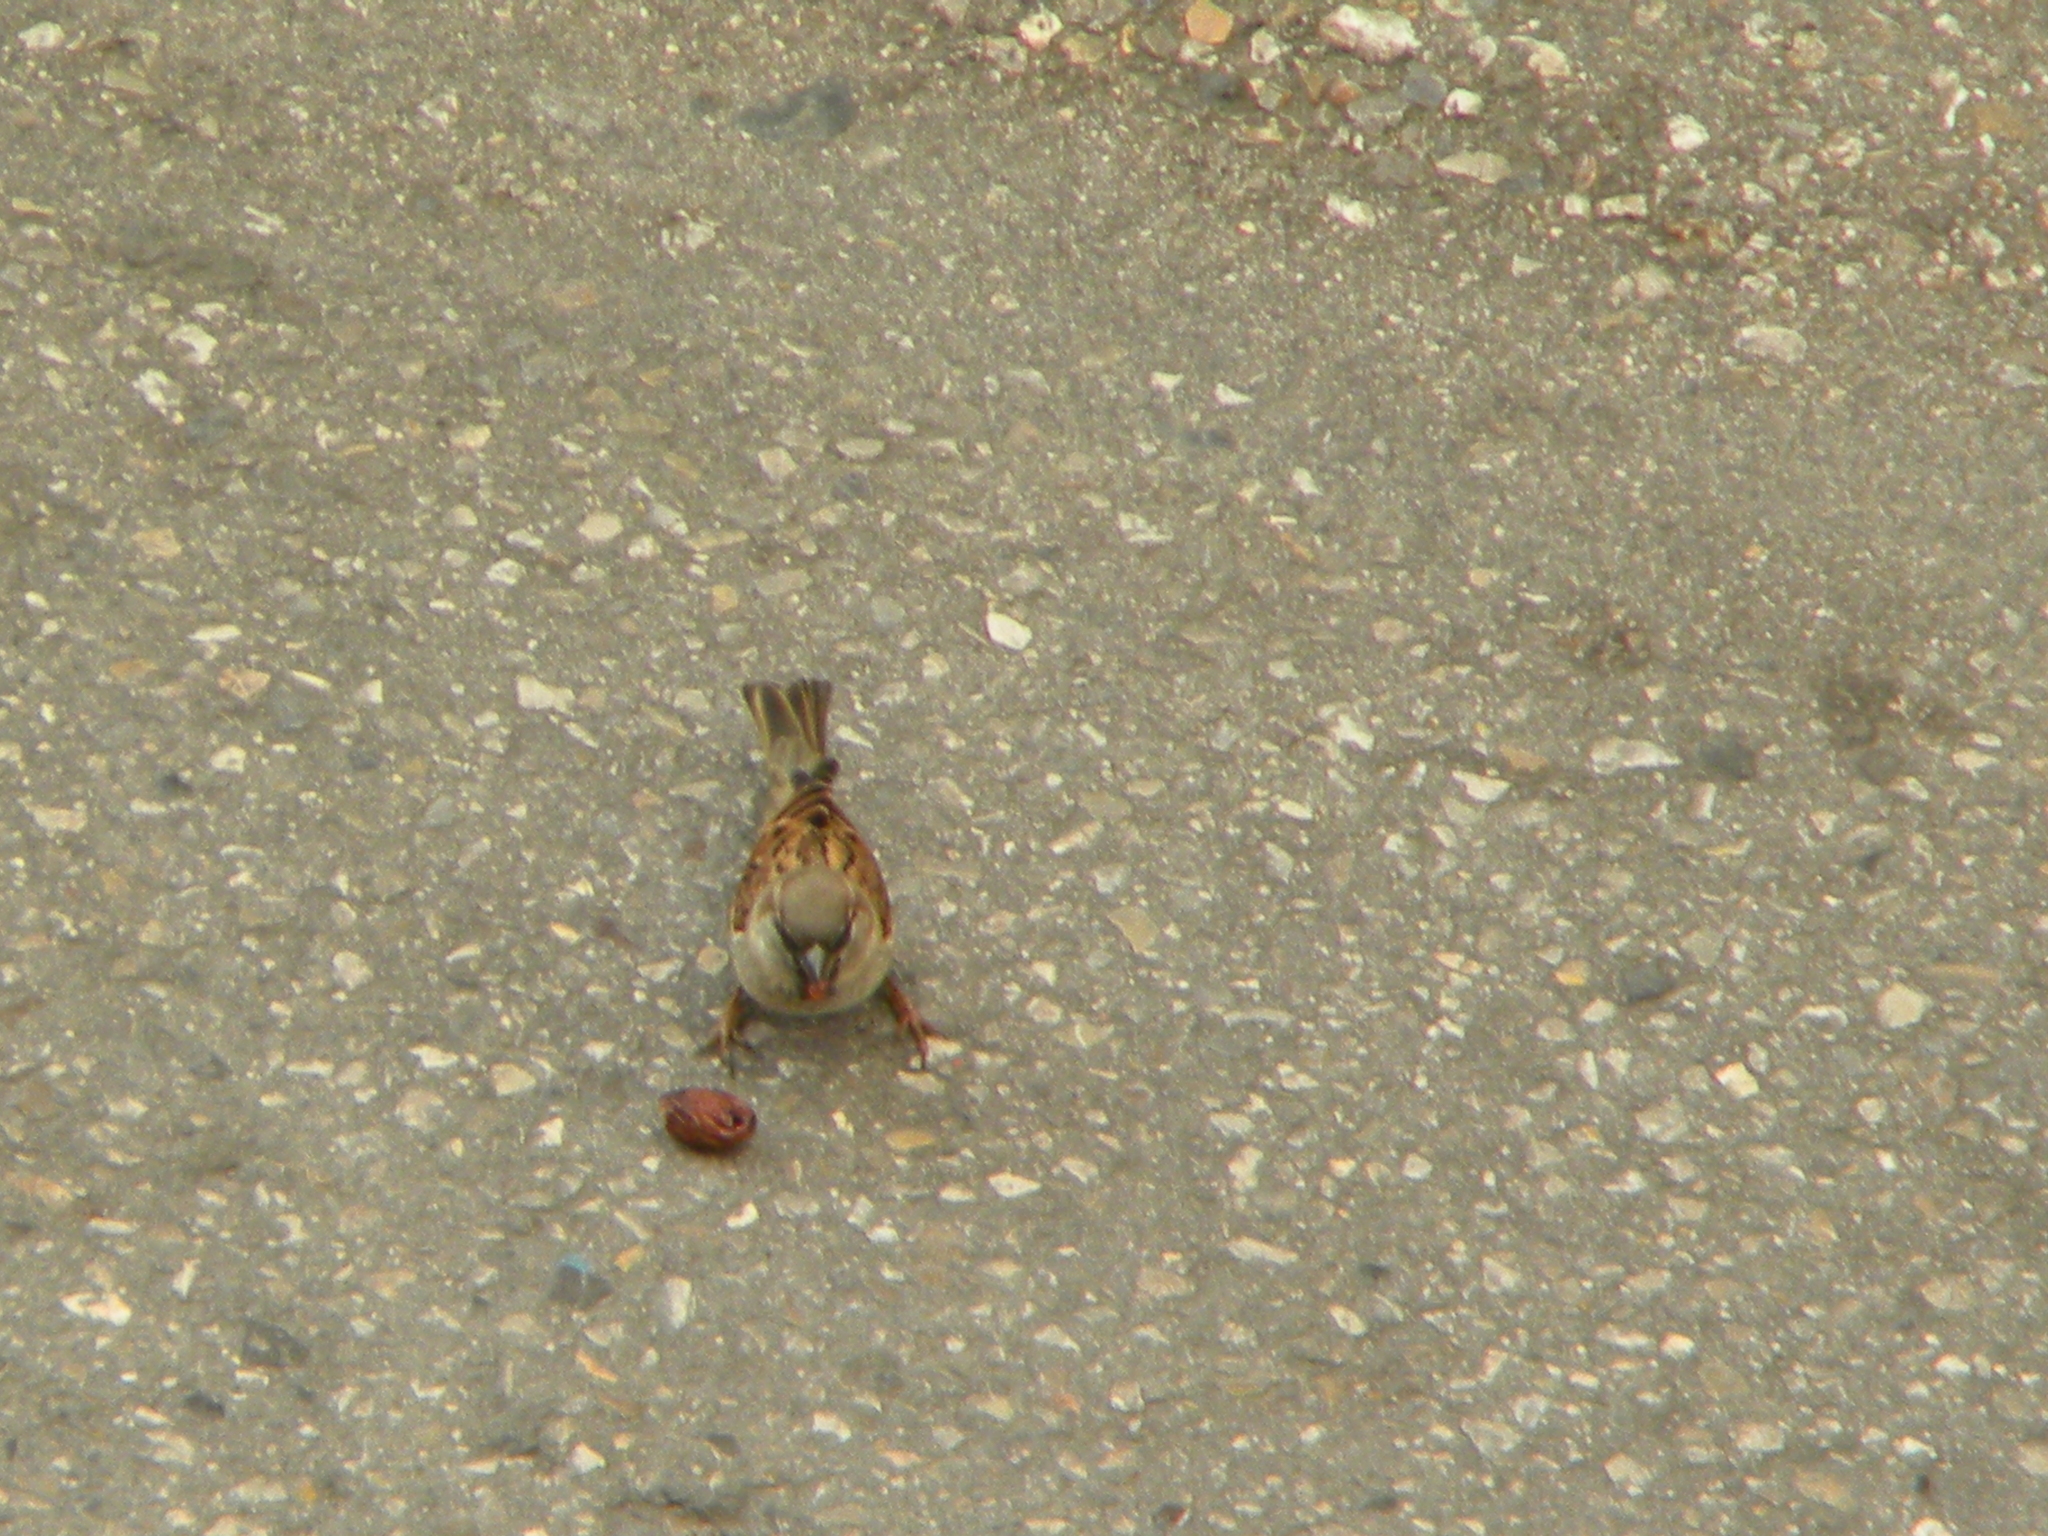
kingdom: Animalia
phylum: Chordata
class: Aves
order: Passeriformes
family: Passeridae
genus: Passer
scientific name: Passer domesticus
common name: House sparrow
